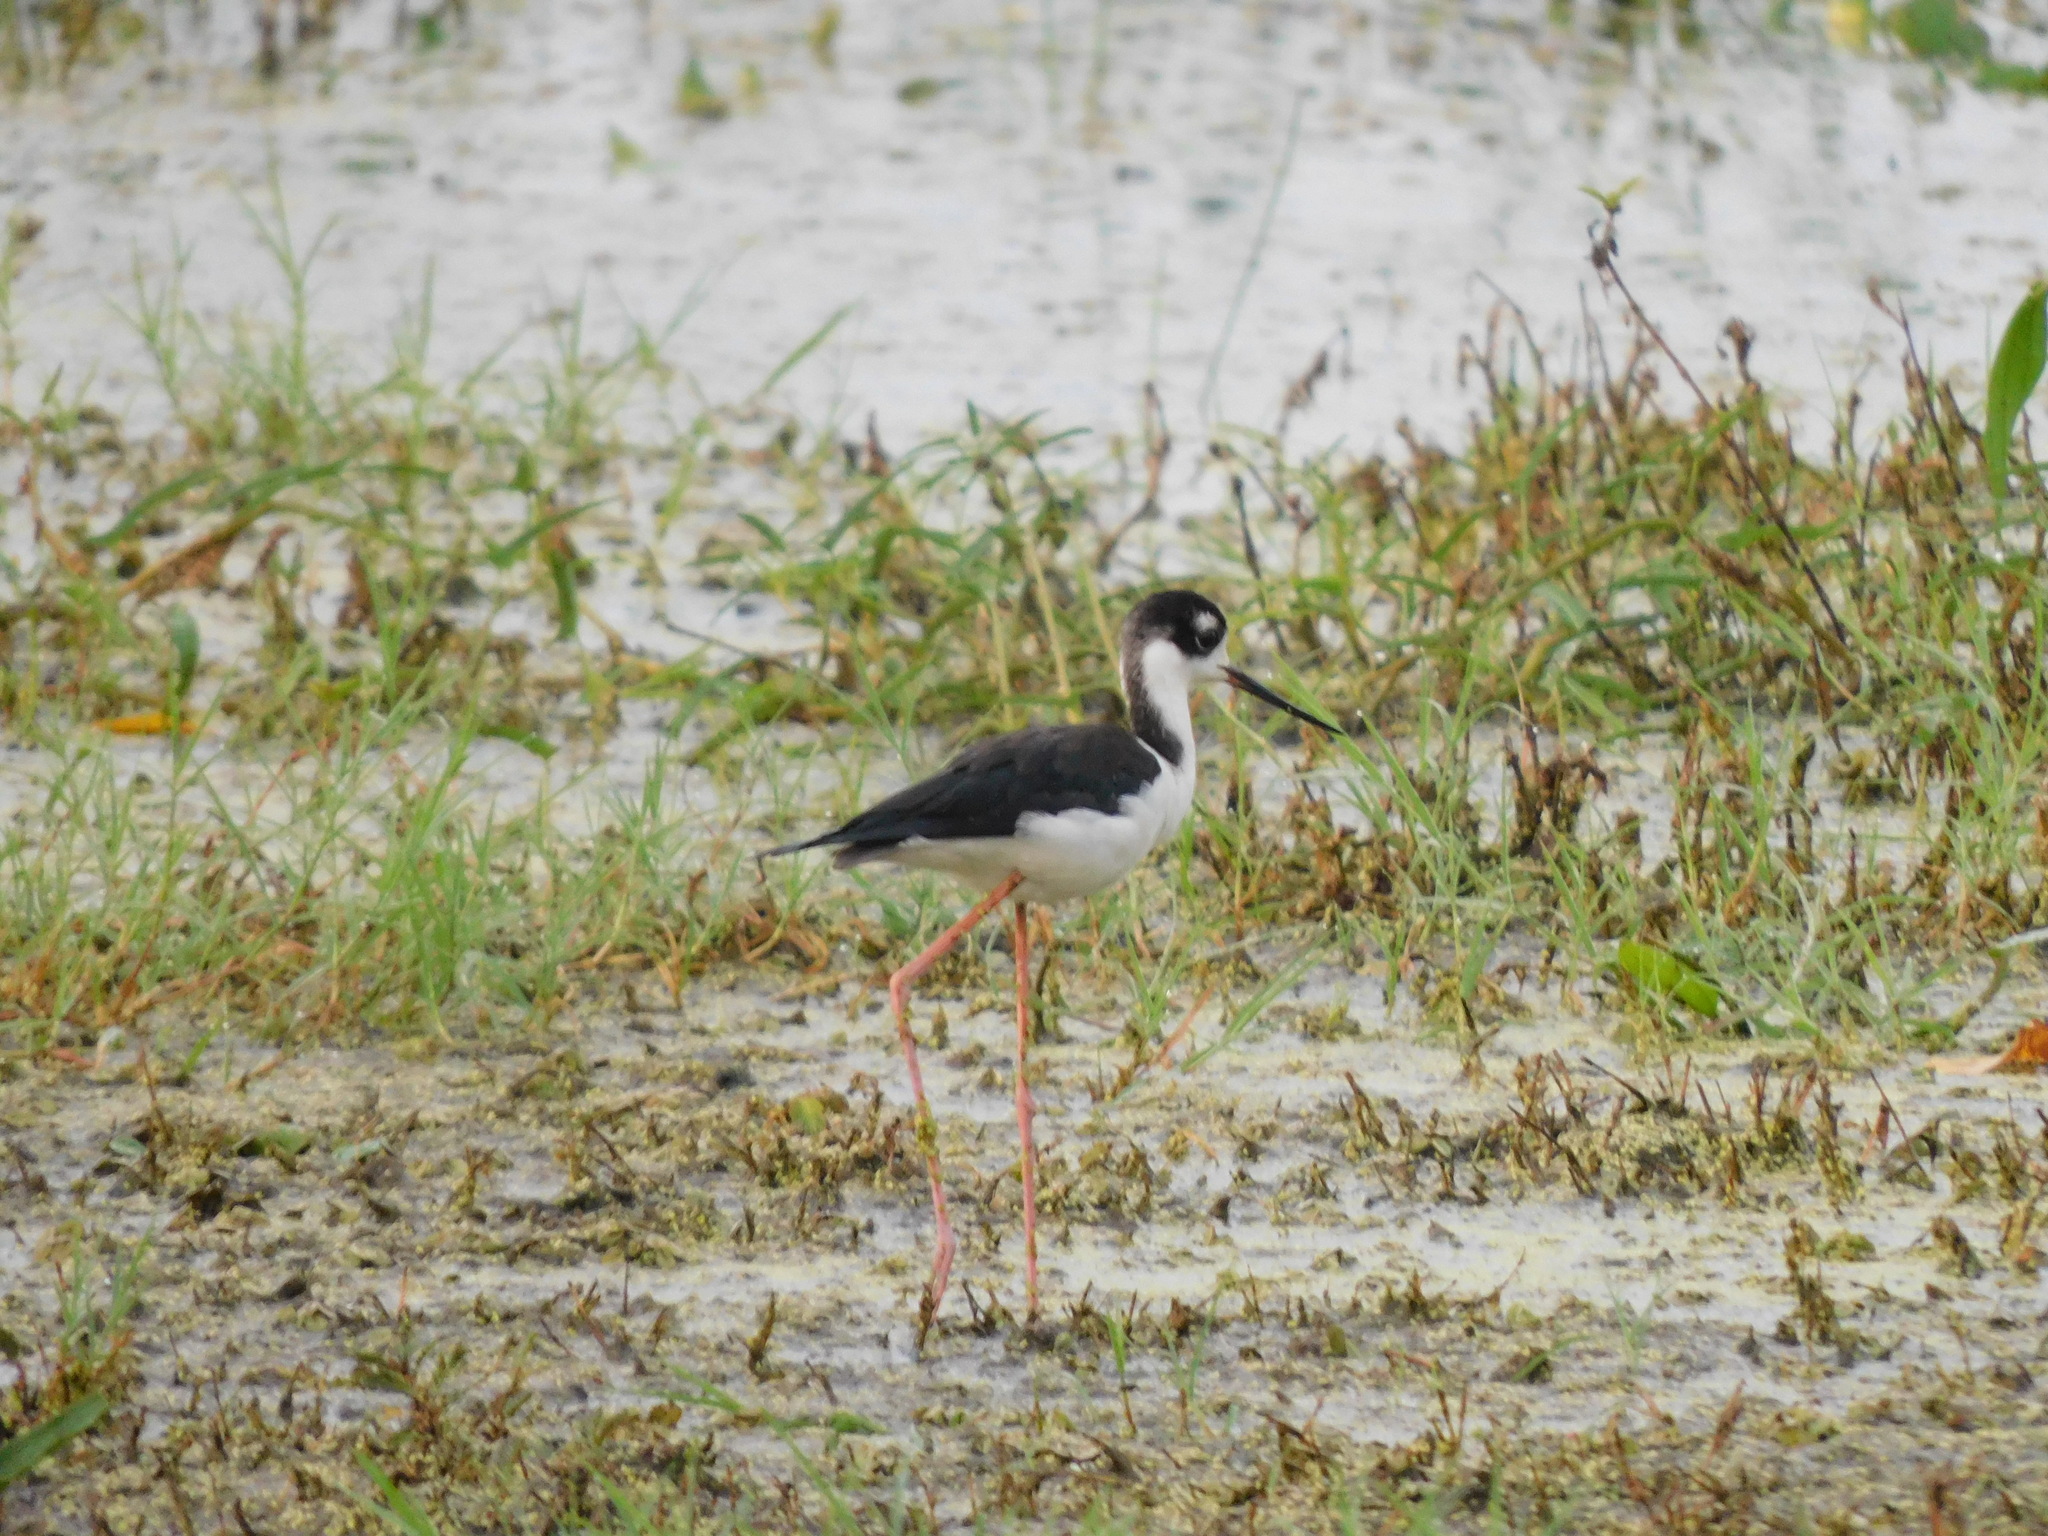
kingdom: Animalia
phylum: Chordata
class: Aves
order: Charadriiformes
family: Recurvirostridae
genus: Himantopus
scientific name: Himantopus mexicanus
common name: Black-necked stilt
